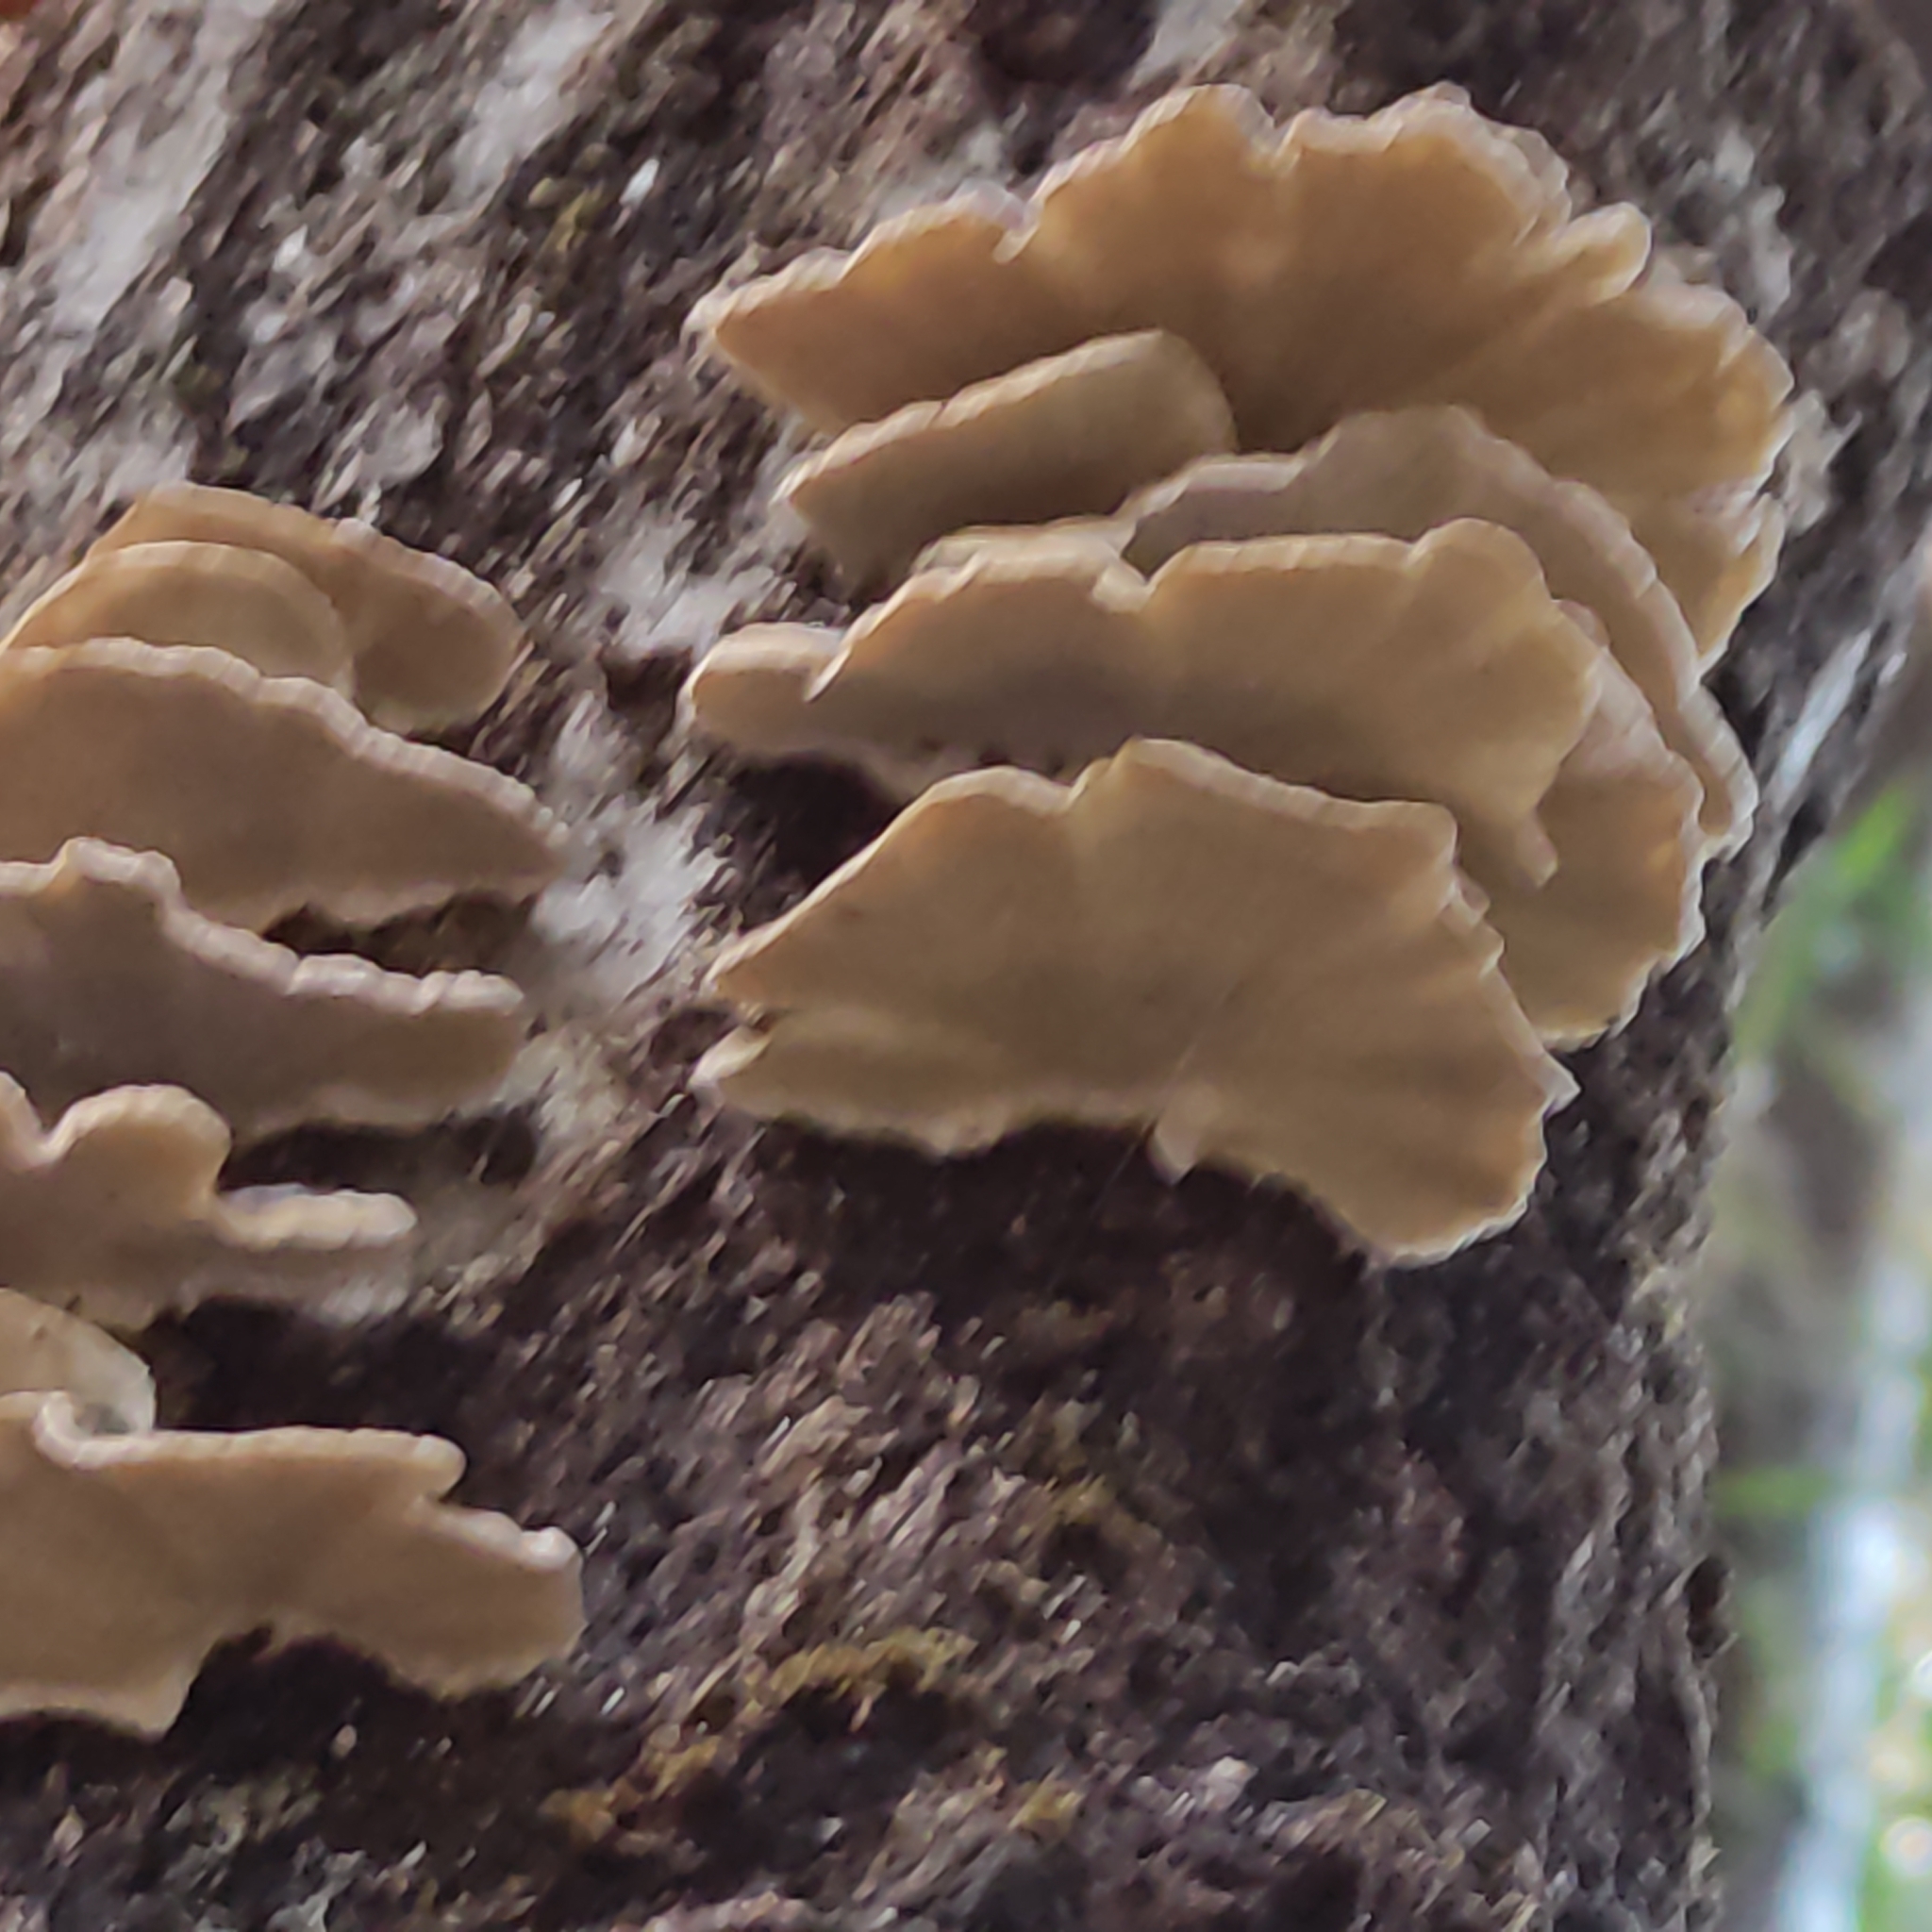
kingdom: Fungi
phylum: Basidiomycota
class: Agaricomycetes
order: Polyporales
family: Polyporaceae
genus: Trametes
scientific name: Trametes versicolor
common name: Turkeytail
